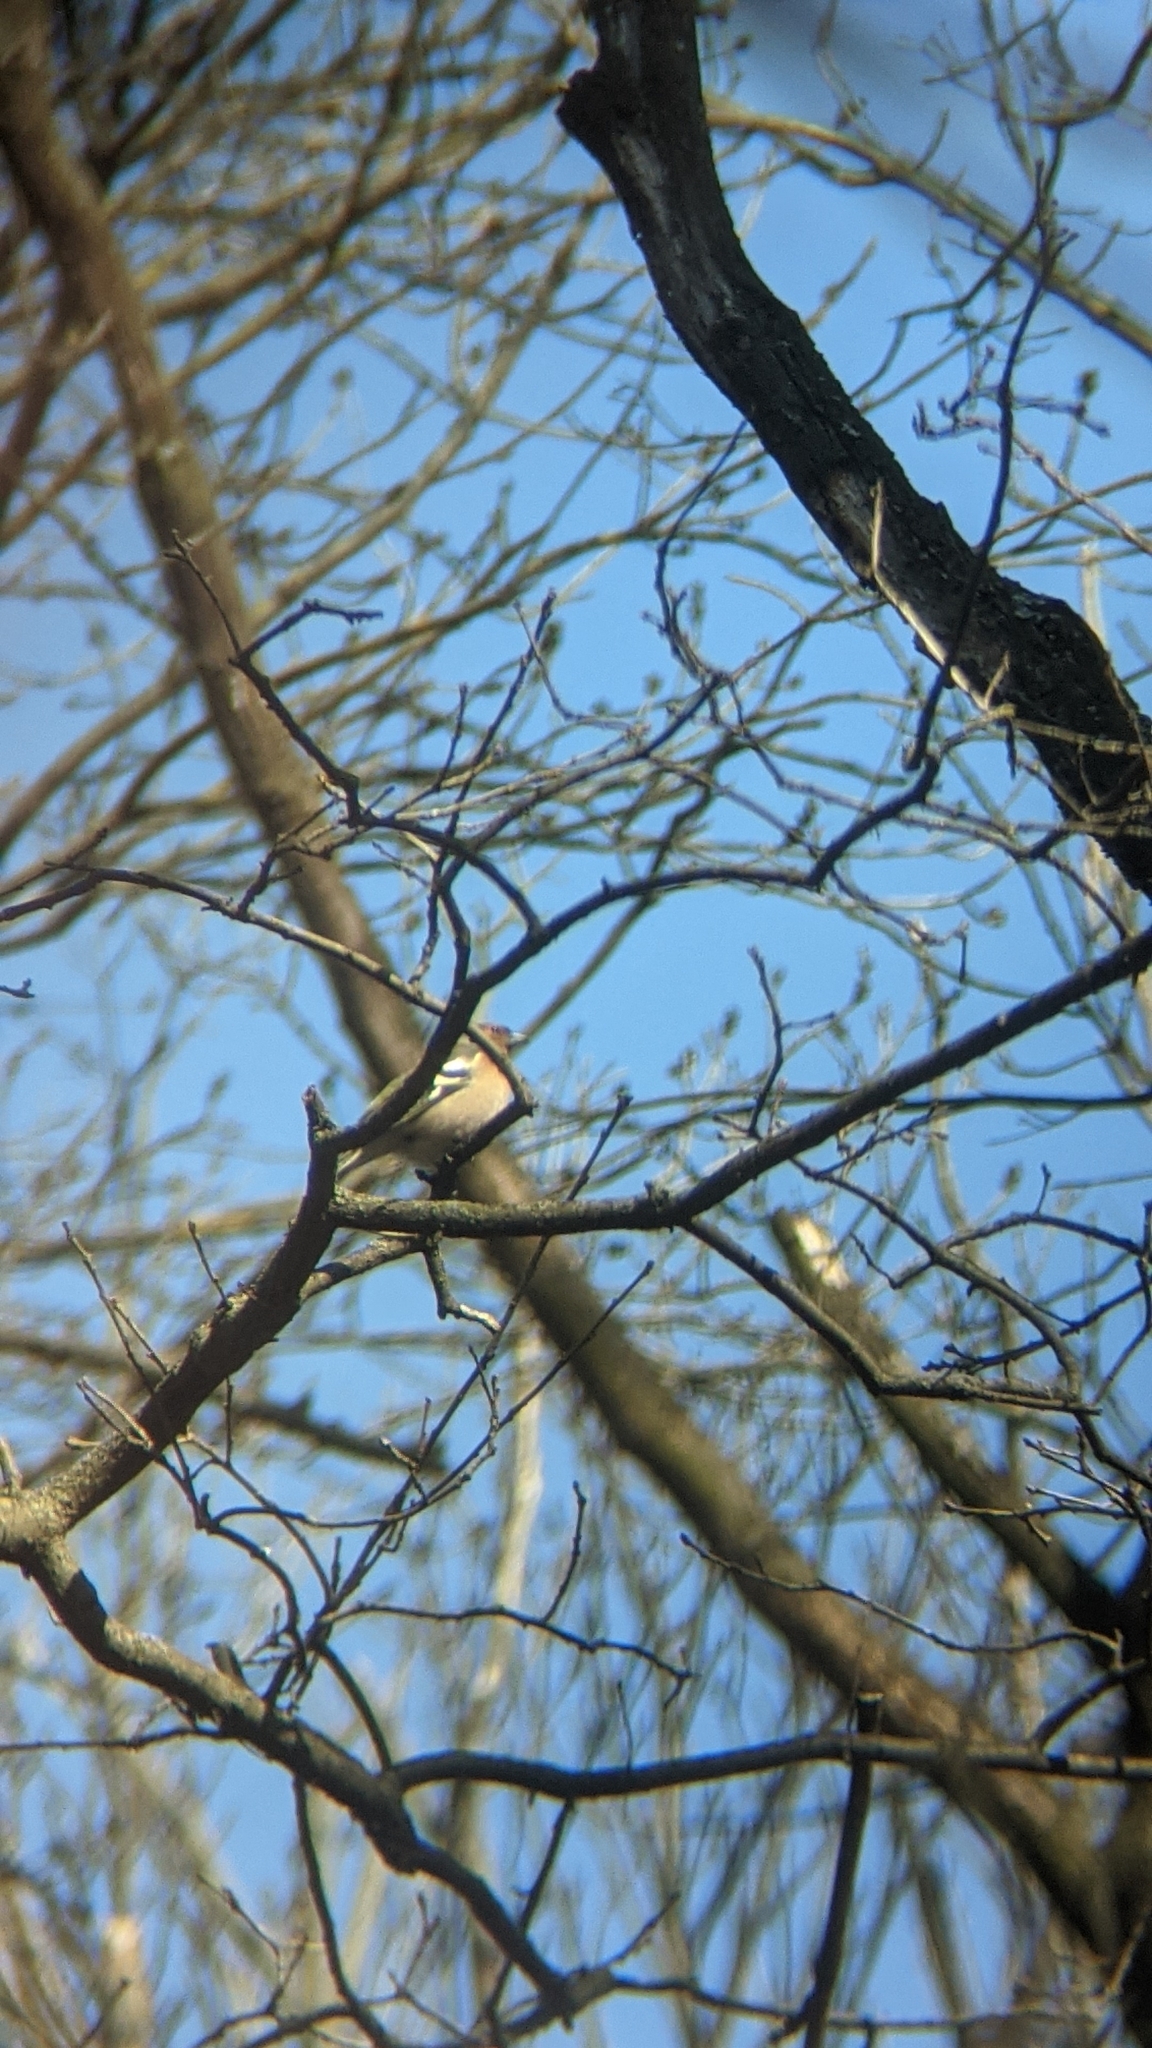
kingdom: Animalia
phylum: Chordata
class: Aves
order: Passeriformes
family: Fringillidae
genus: Fringilla
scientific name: Fringilla coelebs
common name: Common chaffinch
